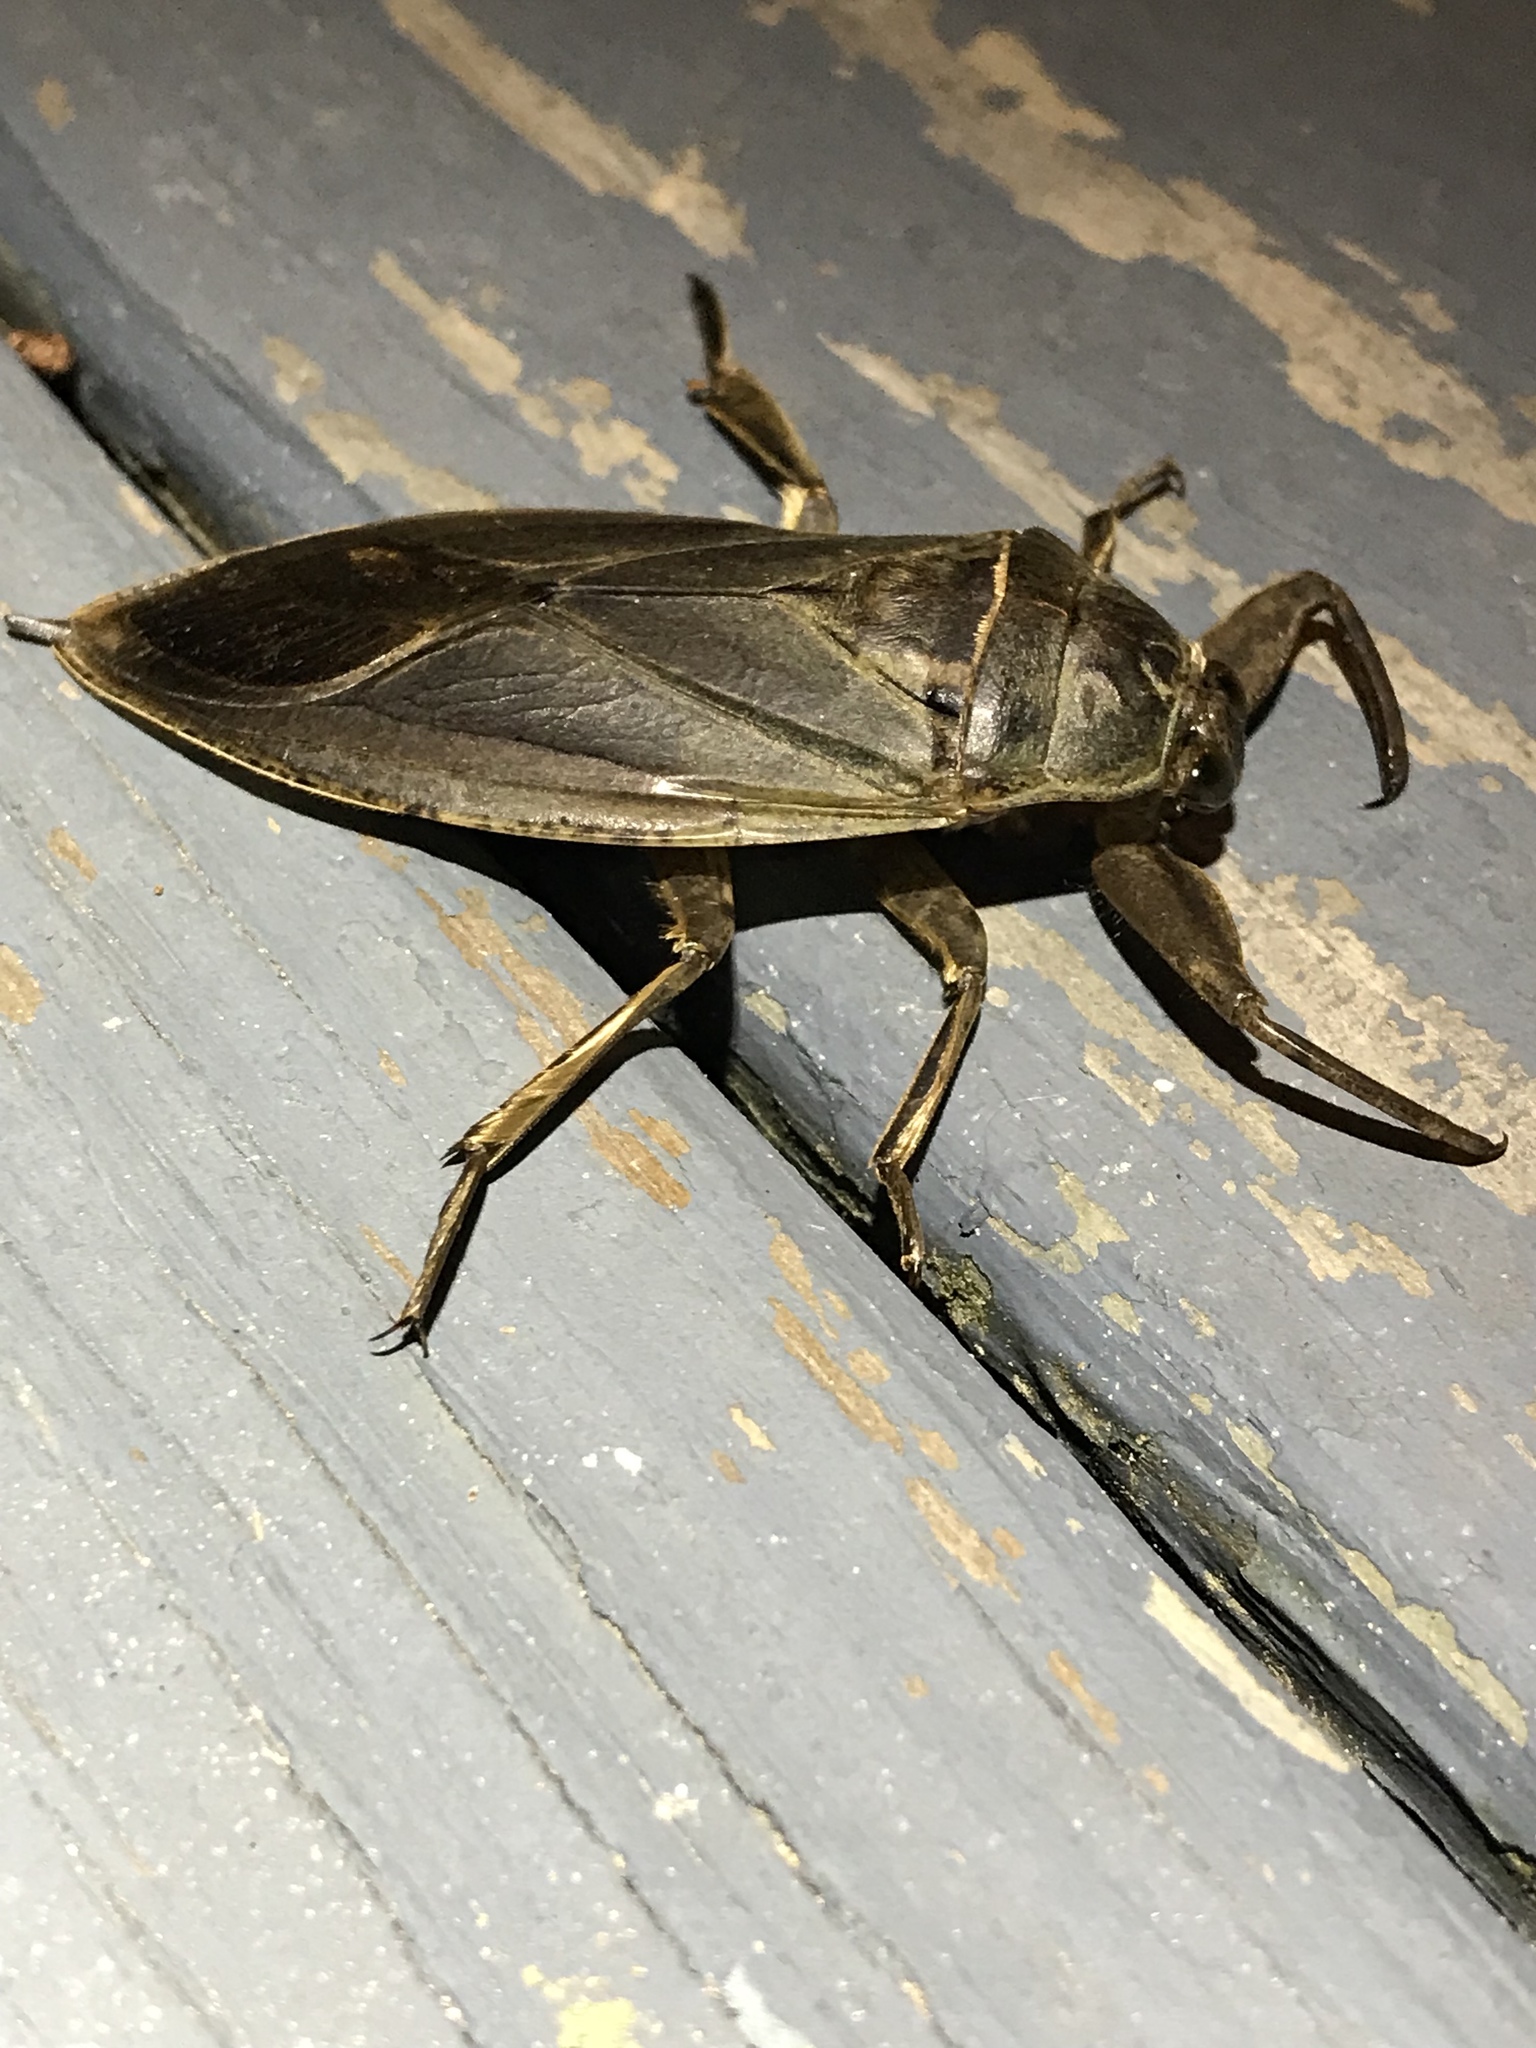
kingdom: Animalia
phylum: Arthropoda
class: Insecta
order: Hemiptera
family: Belostomatidae
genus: Lethocerus
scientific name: Lethocerus americanus
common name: Giant water bug
